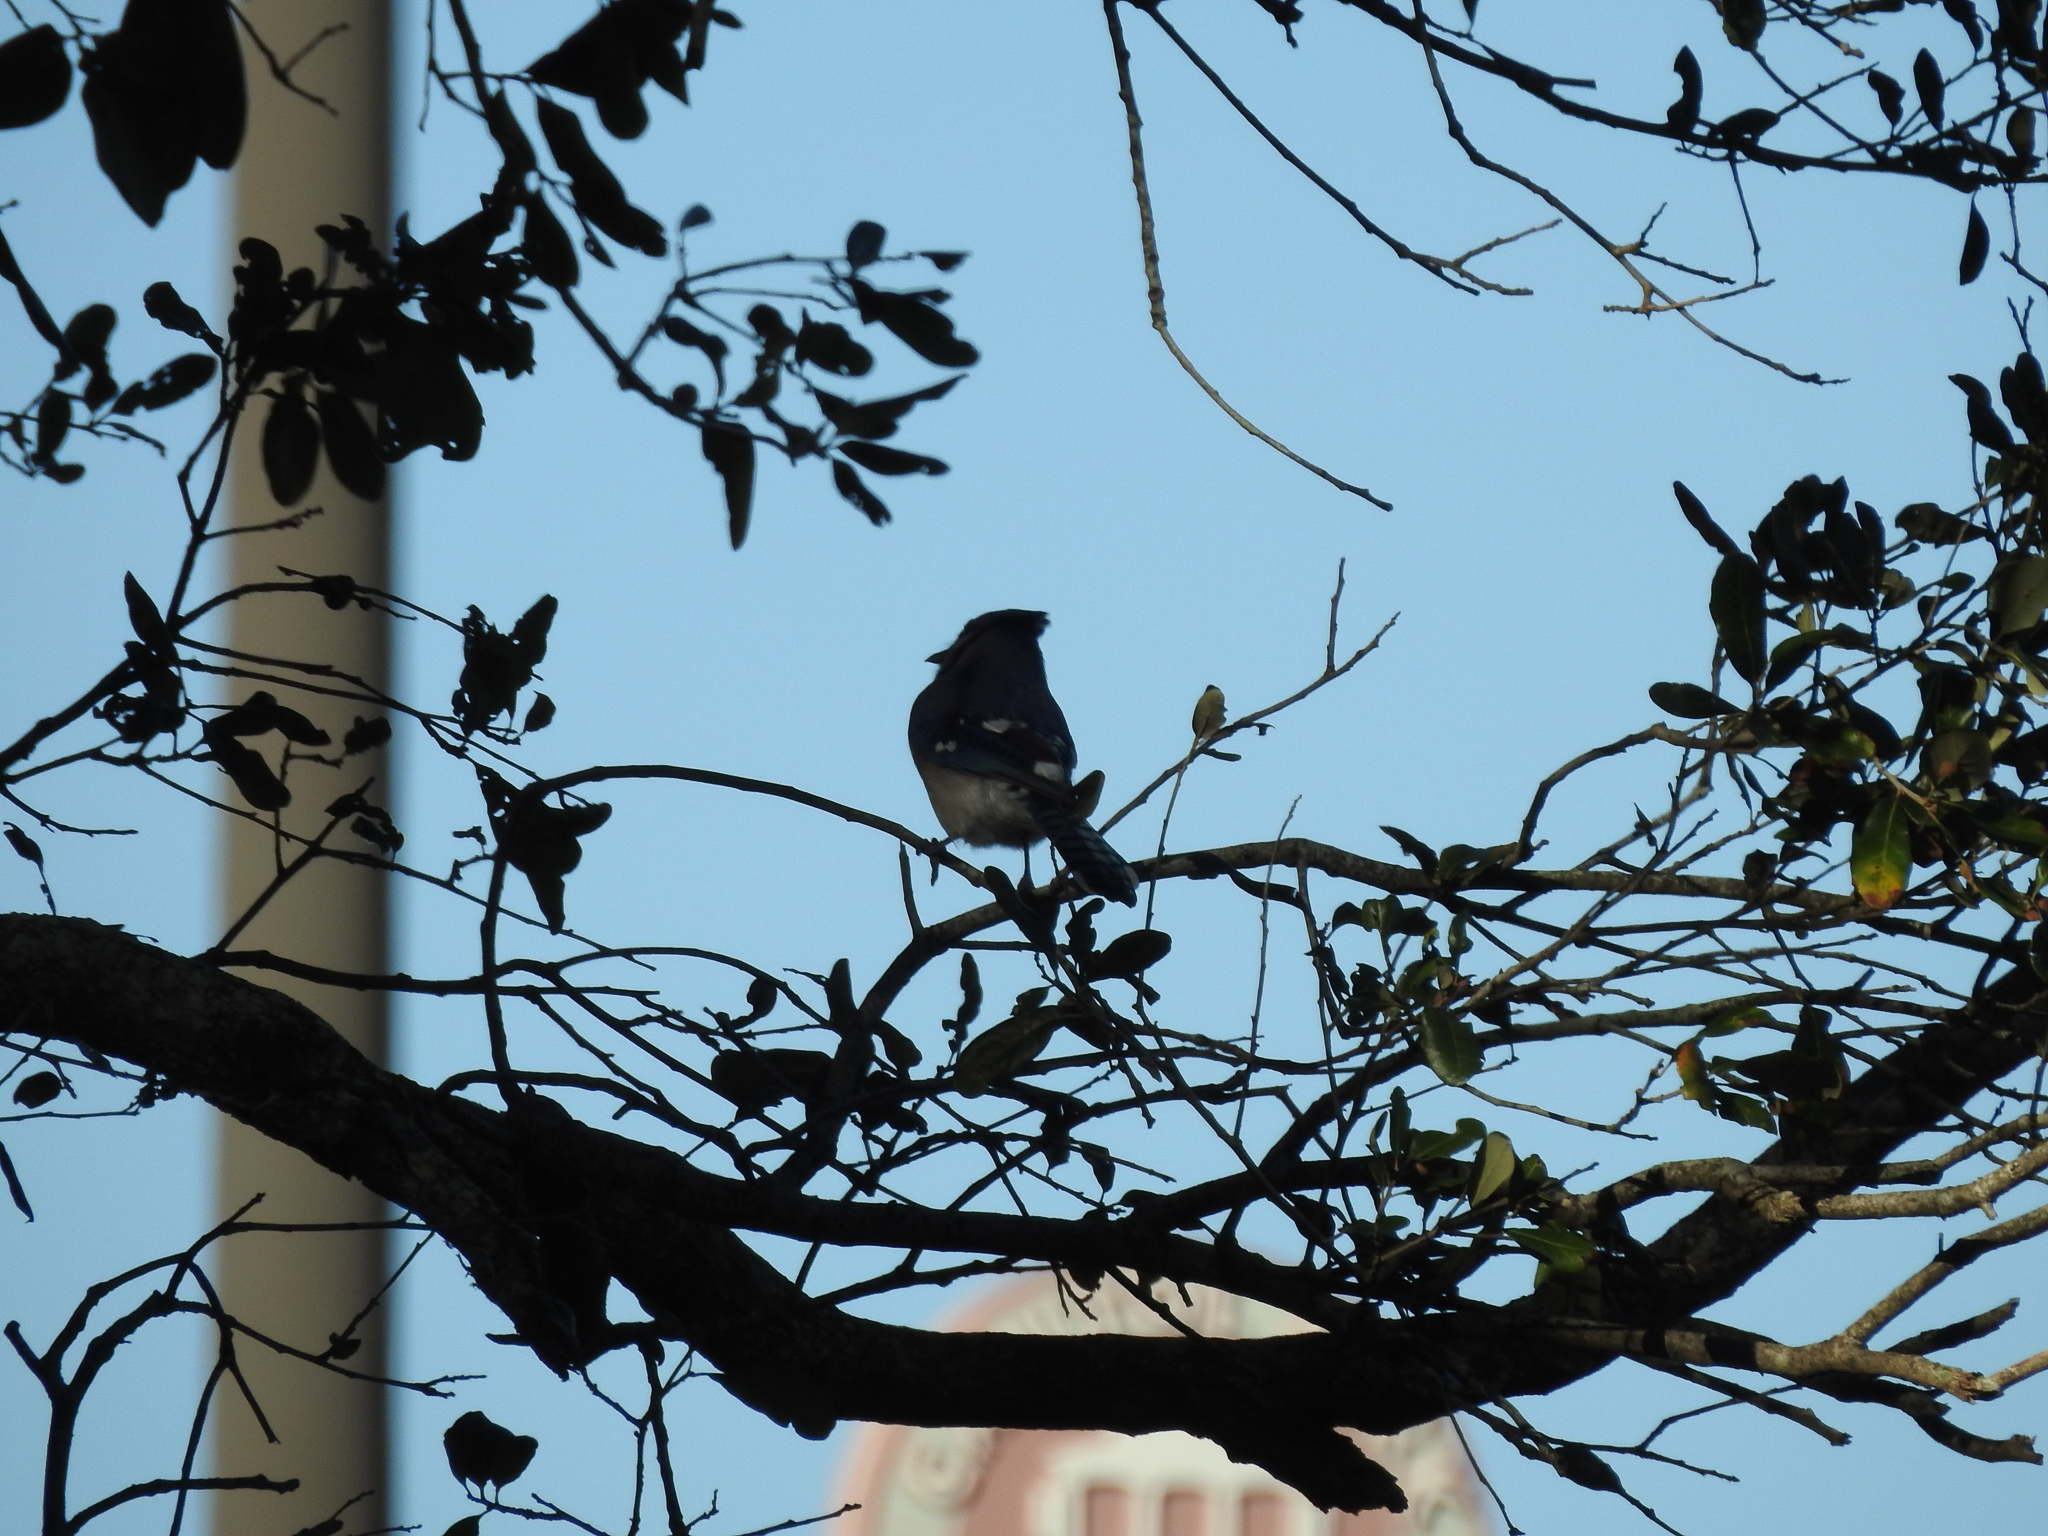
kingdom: Animalia
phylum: Chordata
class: Aves
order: Passeriformes
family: Corvidae
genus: Cyanocitta
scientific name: Cyanocitta cristata
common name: Blue jay
